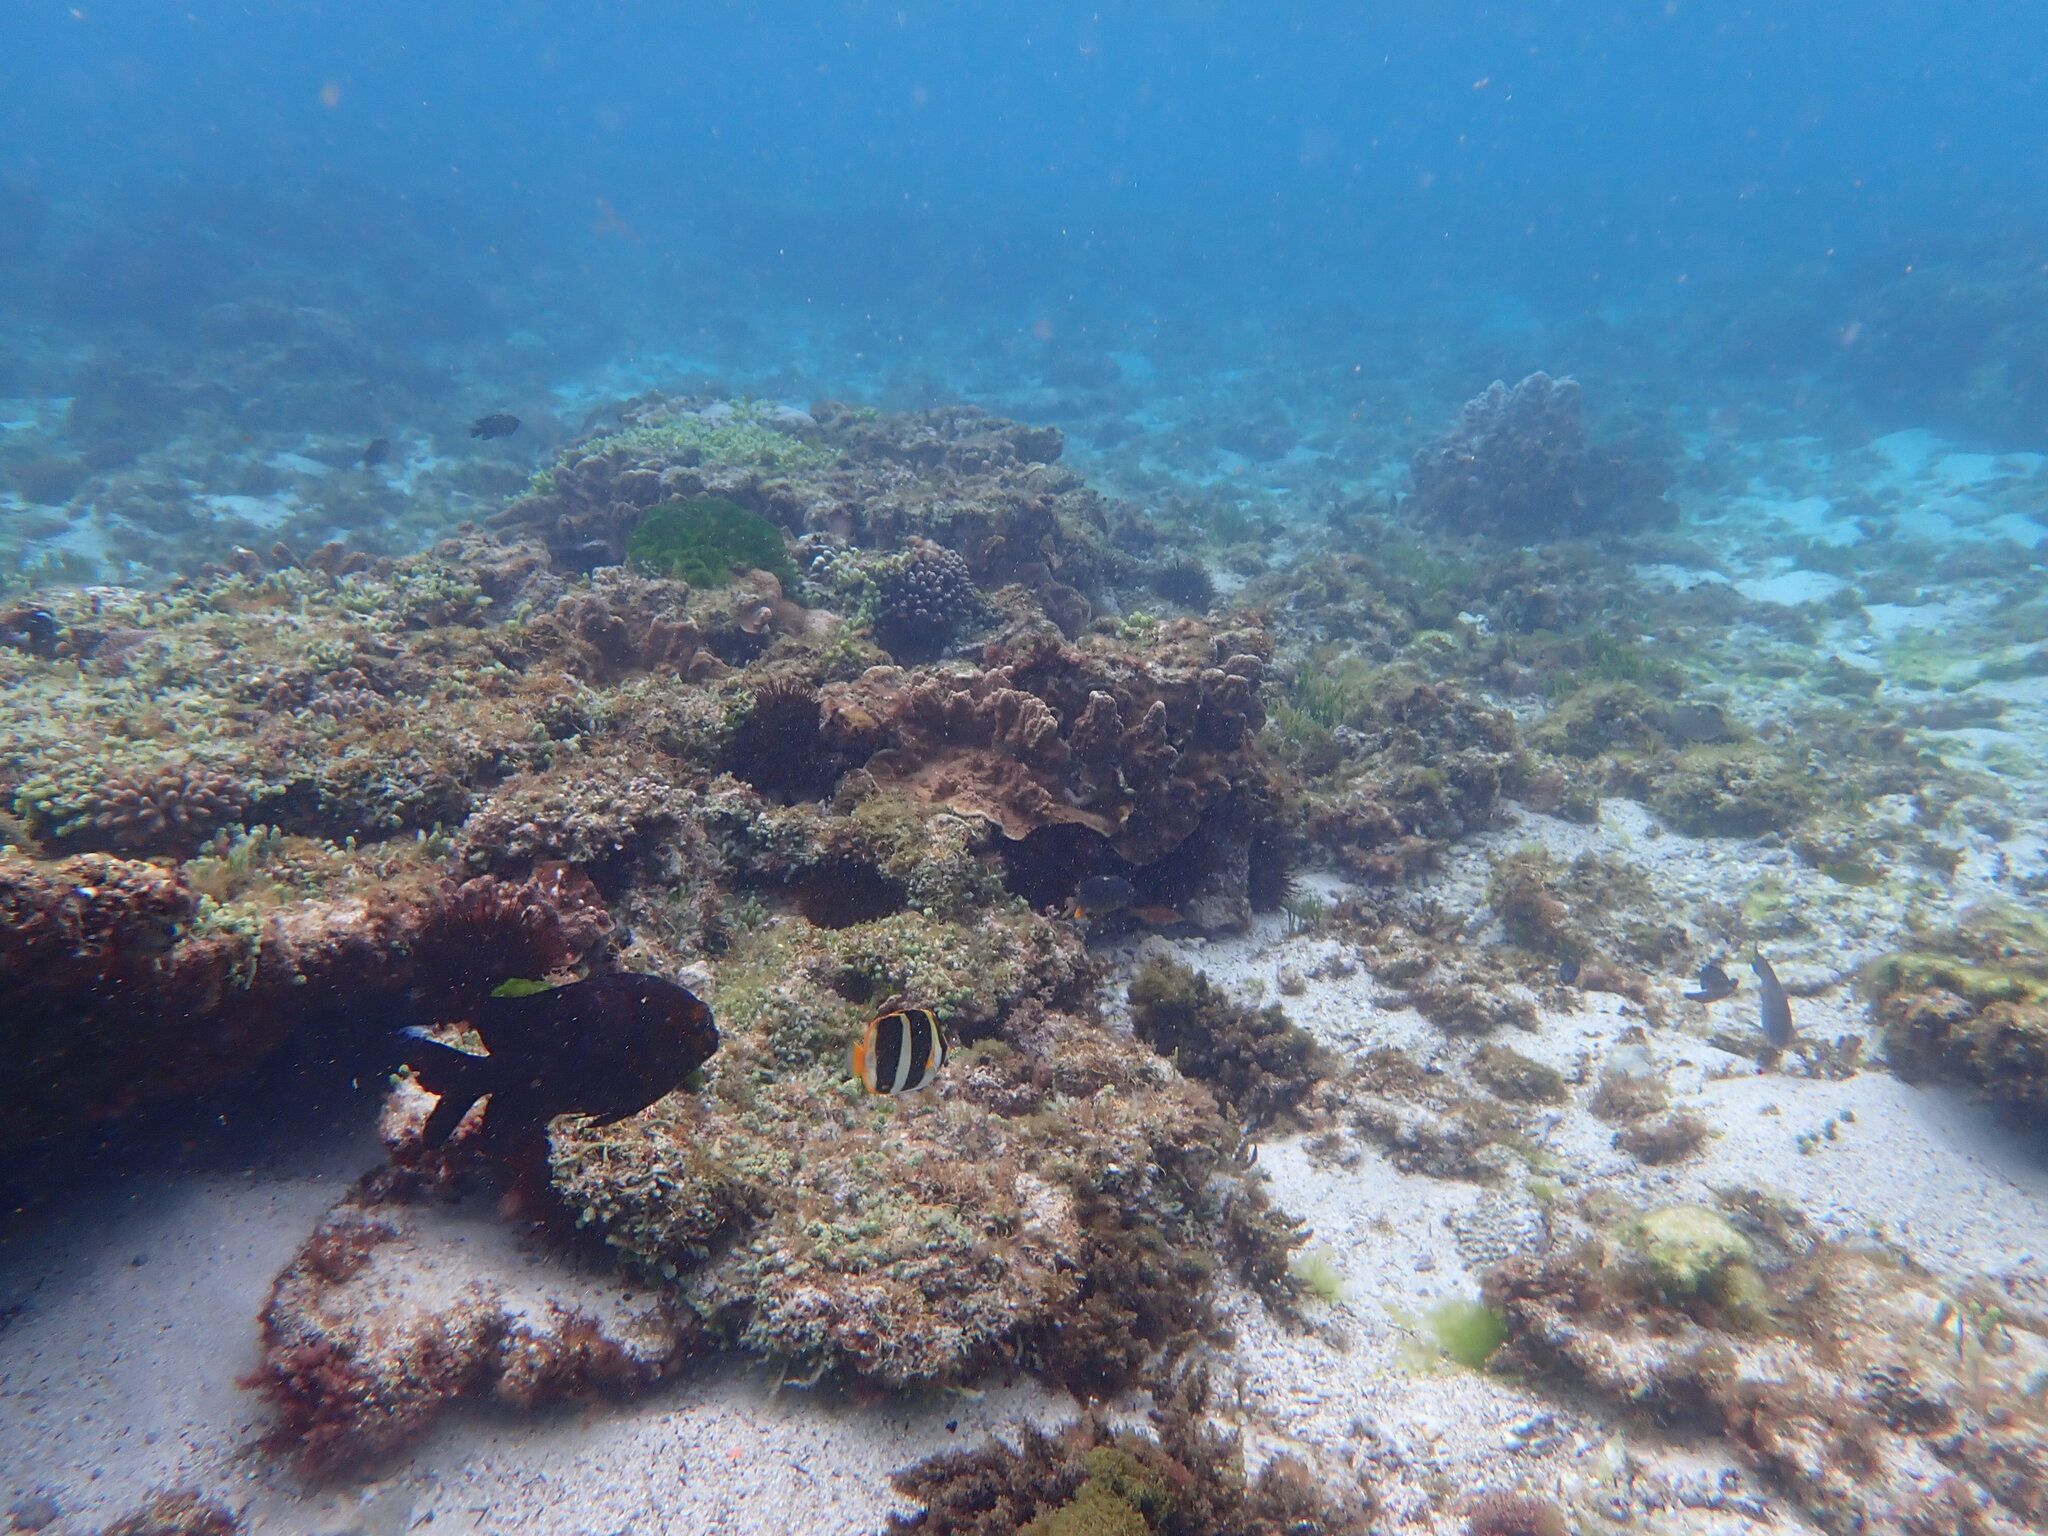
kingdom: Animalia
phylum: Chordata
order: Perciformes
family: Chaetodontidae
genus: Chaetodon
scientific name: Chaetodon tricinctus
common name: Three-striped butterflyfish
